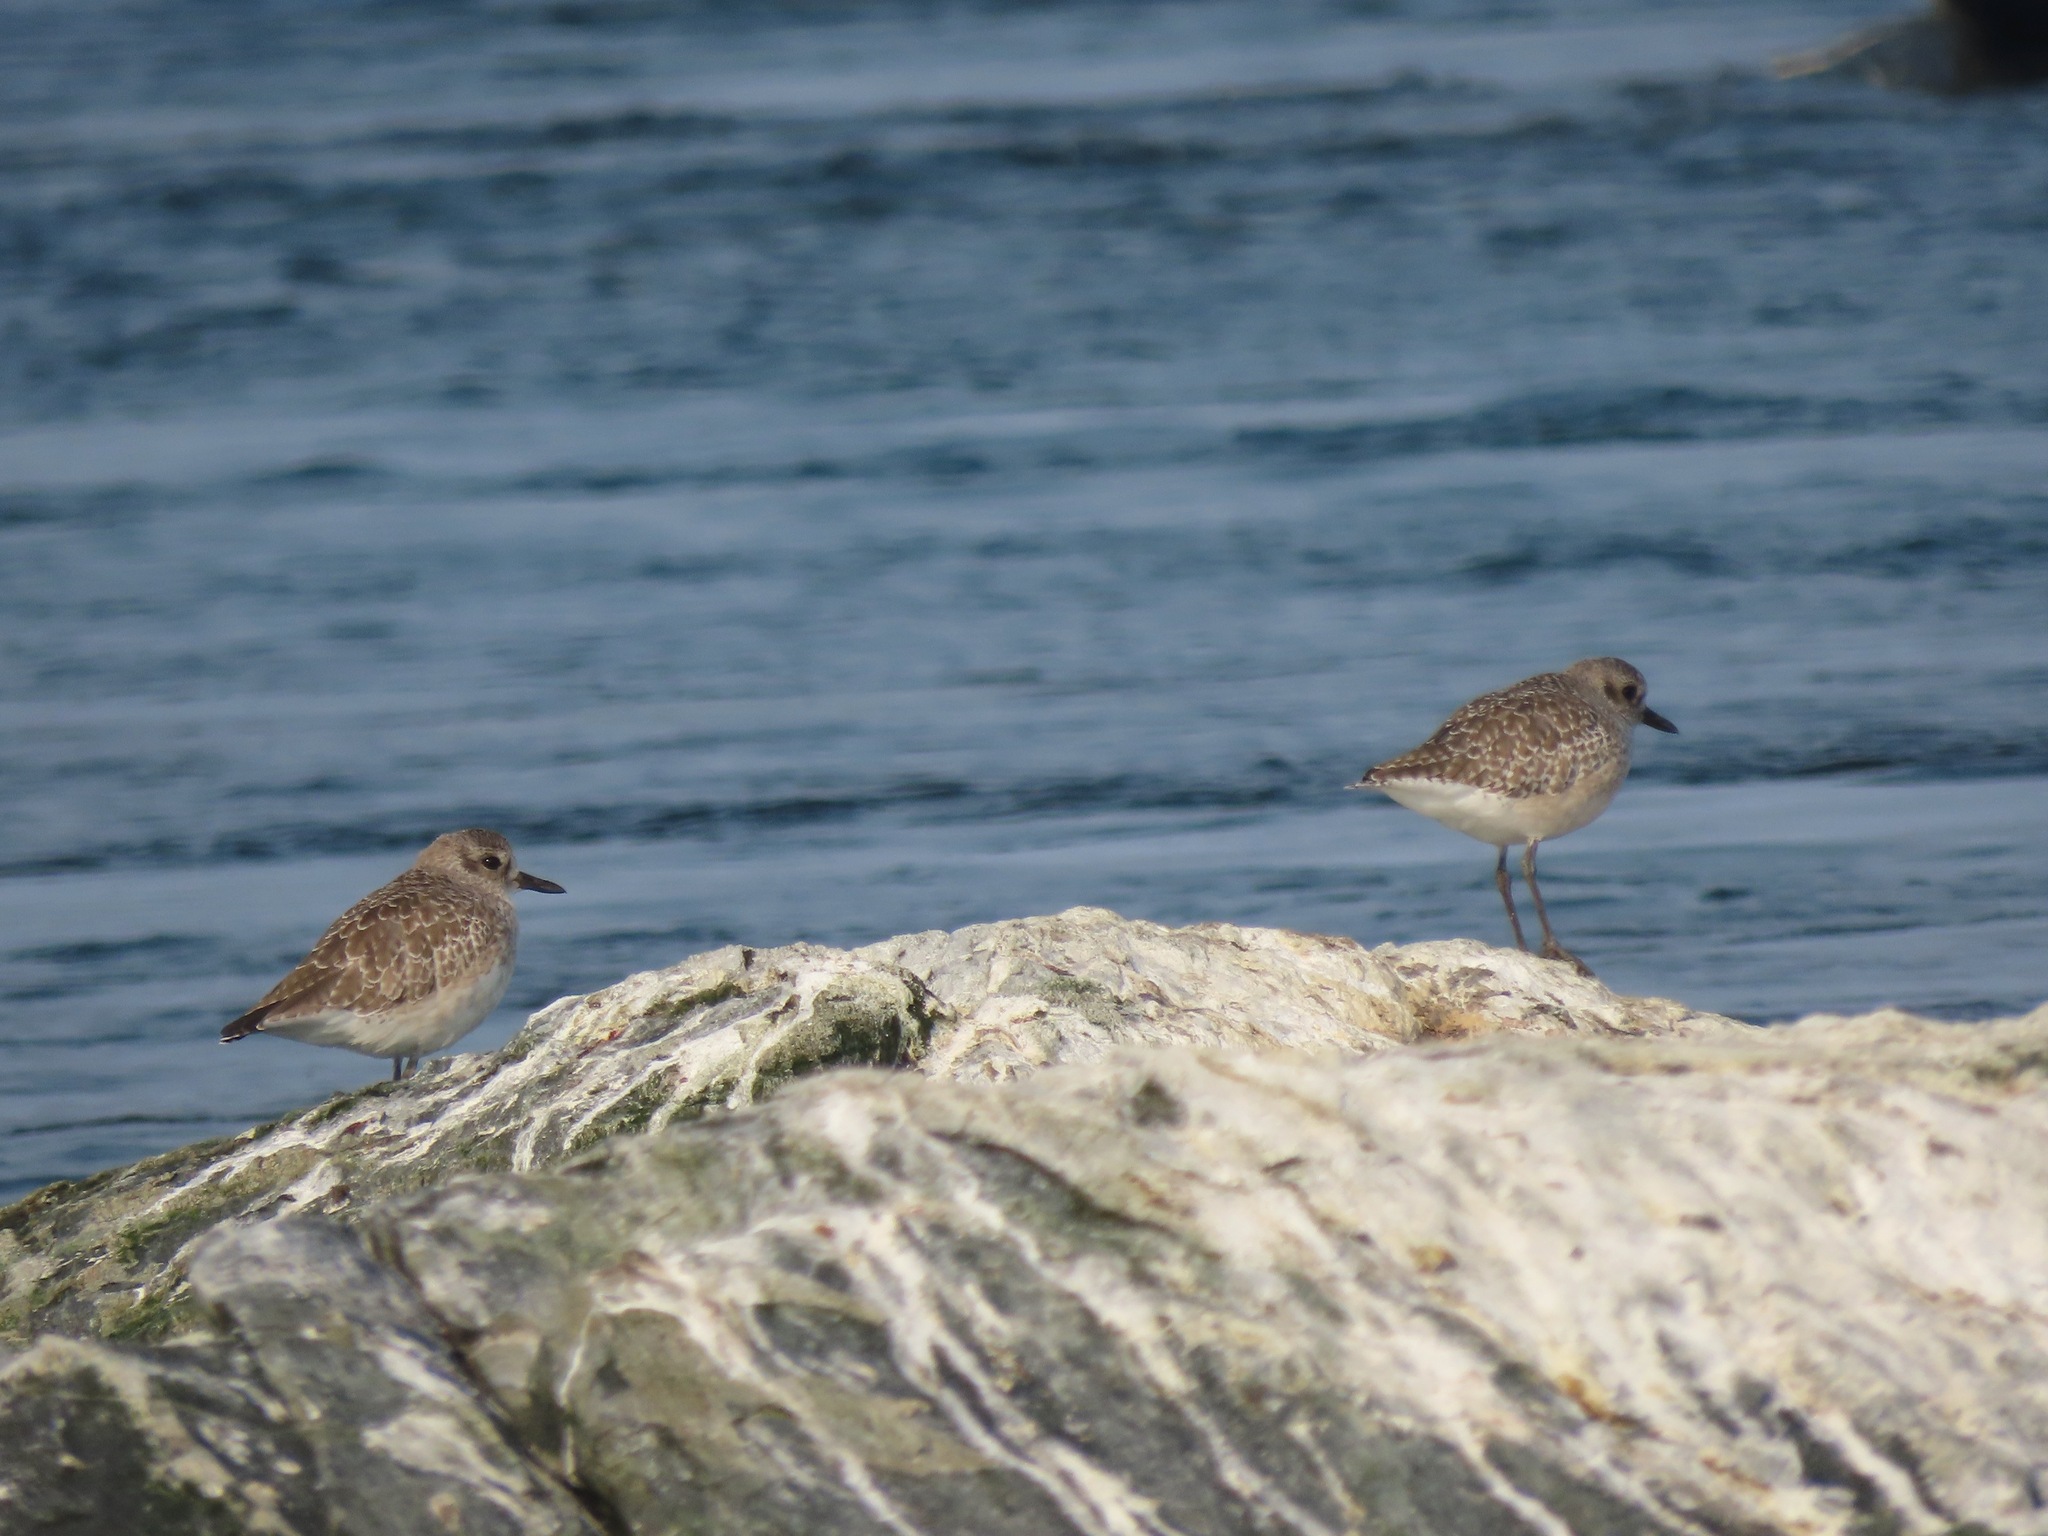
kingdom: Animalia
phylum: Chordata
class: Aves
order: Charadriiformes
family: Charadriidae
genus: Pluvialis
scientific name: Pluvialis squatarola
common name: Grey plover
